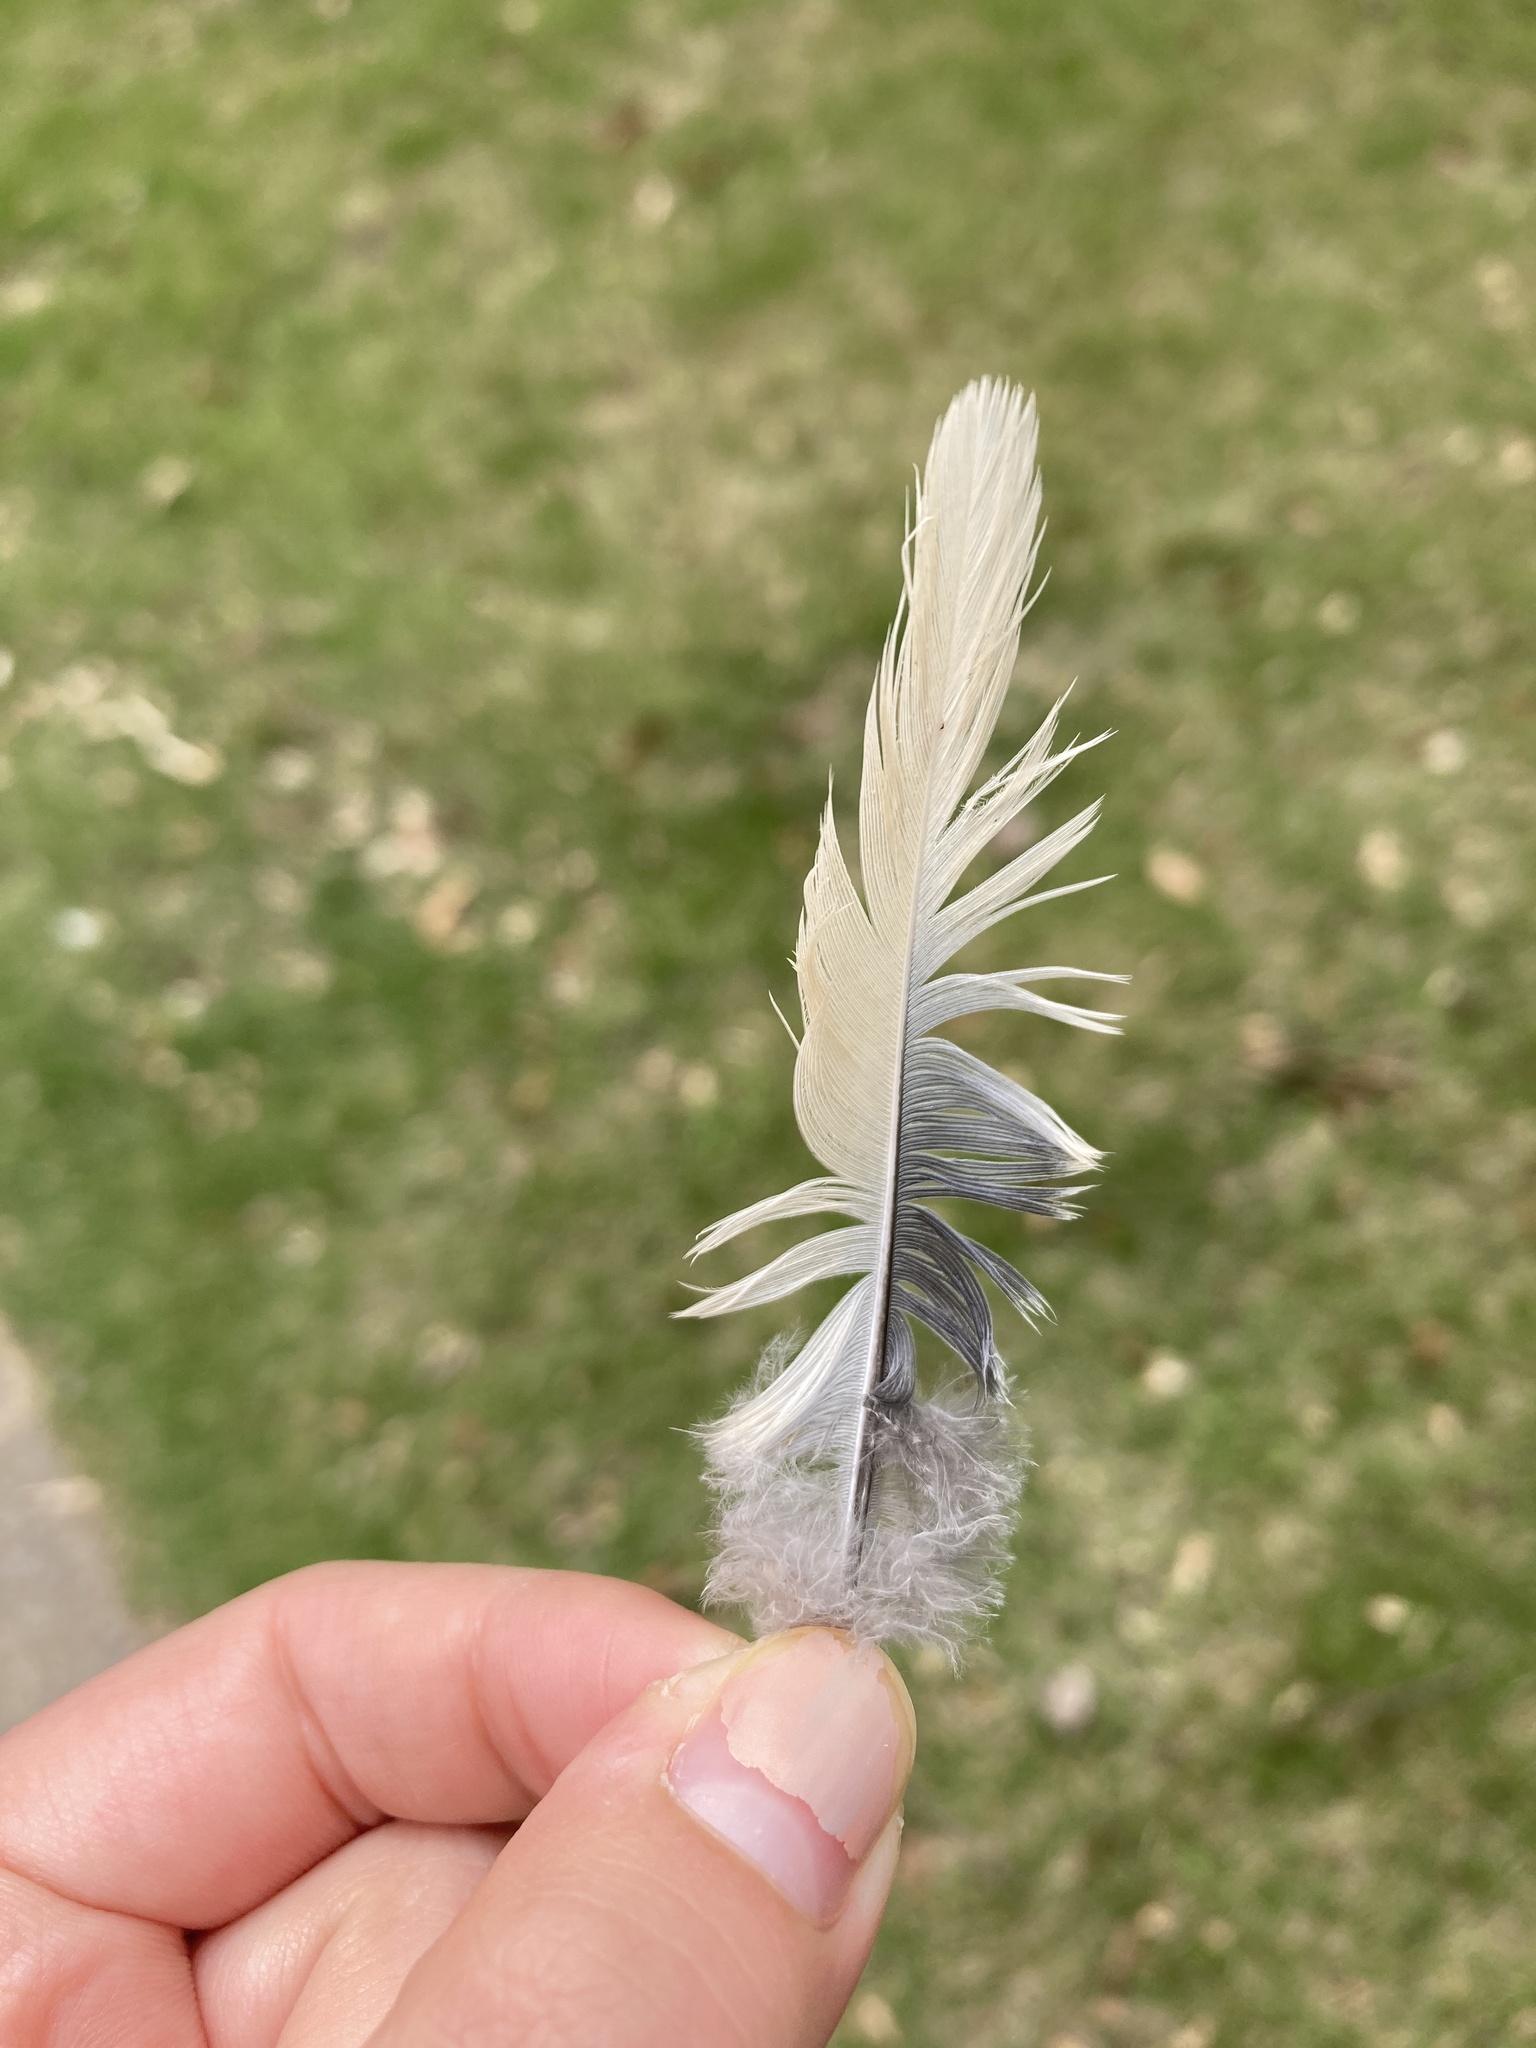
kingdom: Animalia
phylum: Chordata
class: Aves
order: Columbiformes
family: Columbidae
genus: Zenaida
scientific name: Zenaida macroura
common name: Mourning dove
